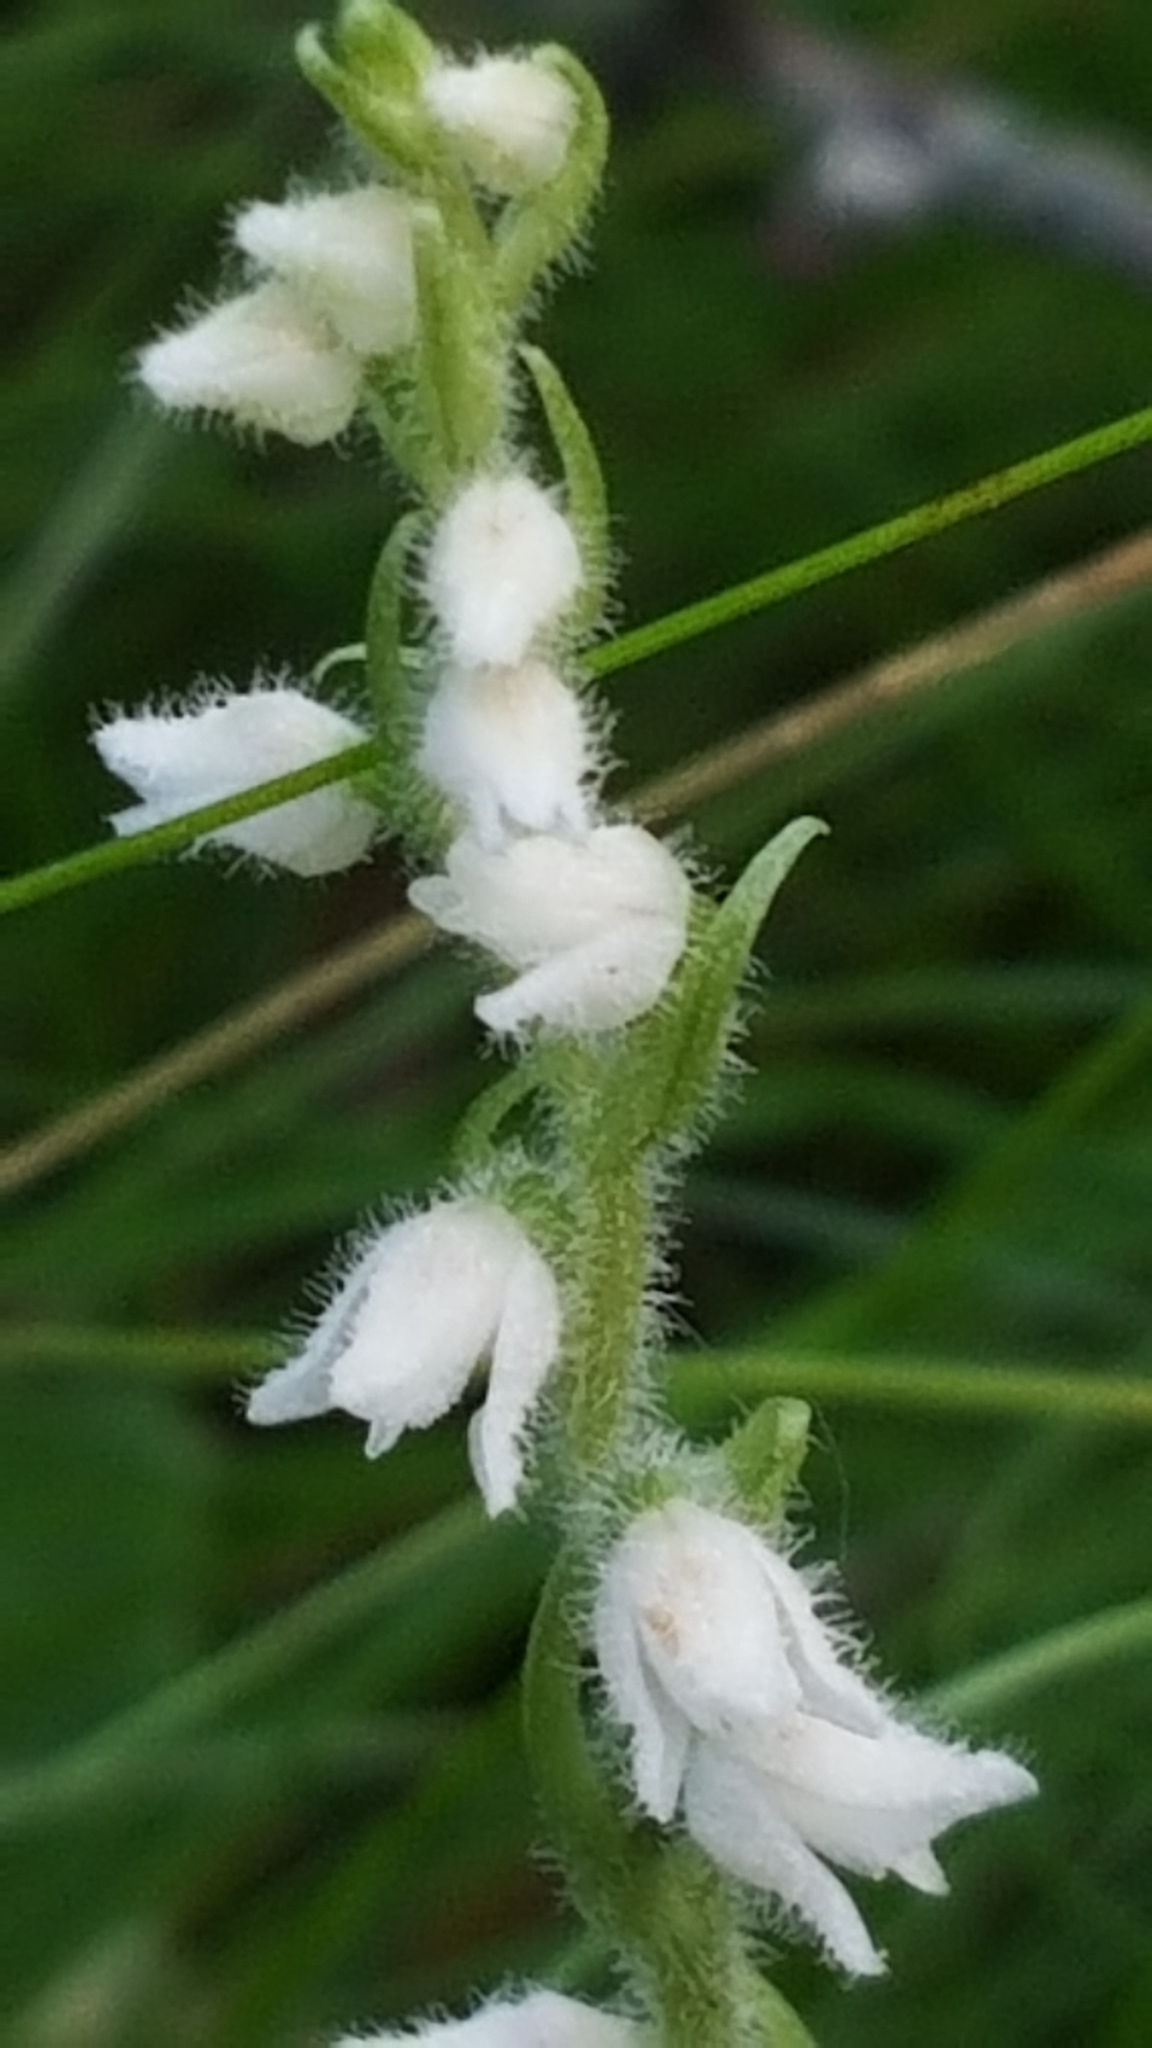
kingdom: Plantae
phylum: Tracheophyta
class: Liliopsida
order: Asparagales
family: Orchidaceae
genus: Goodyera
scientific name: Goodyera repens
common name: Creeping lady's-tresses
